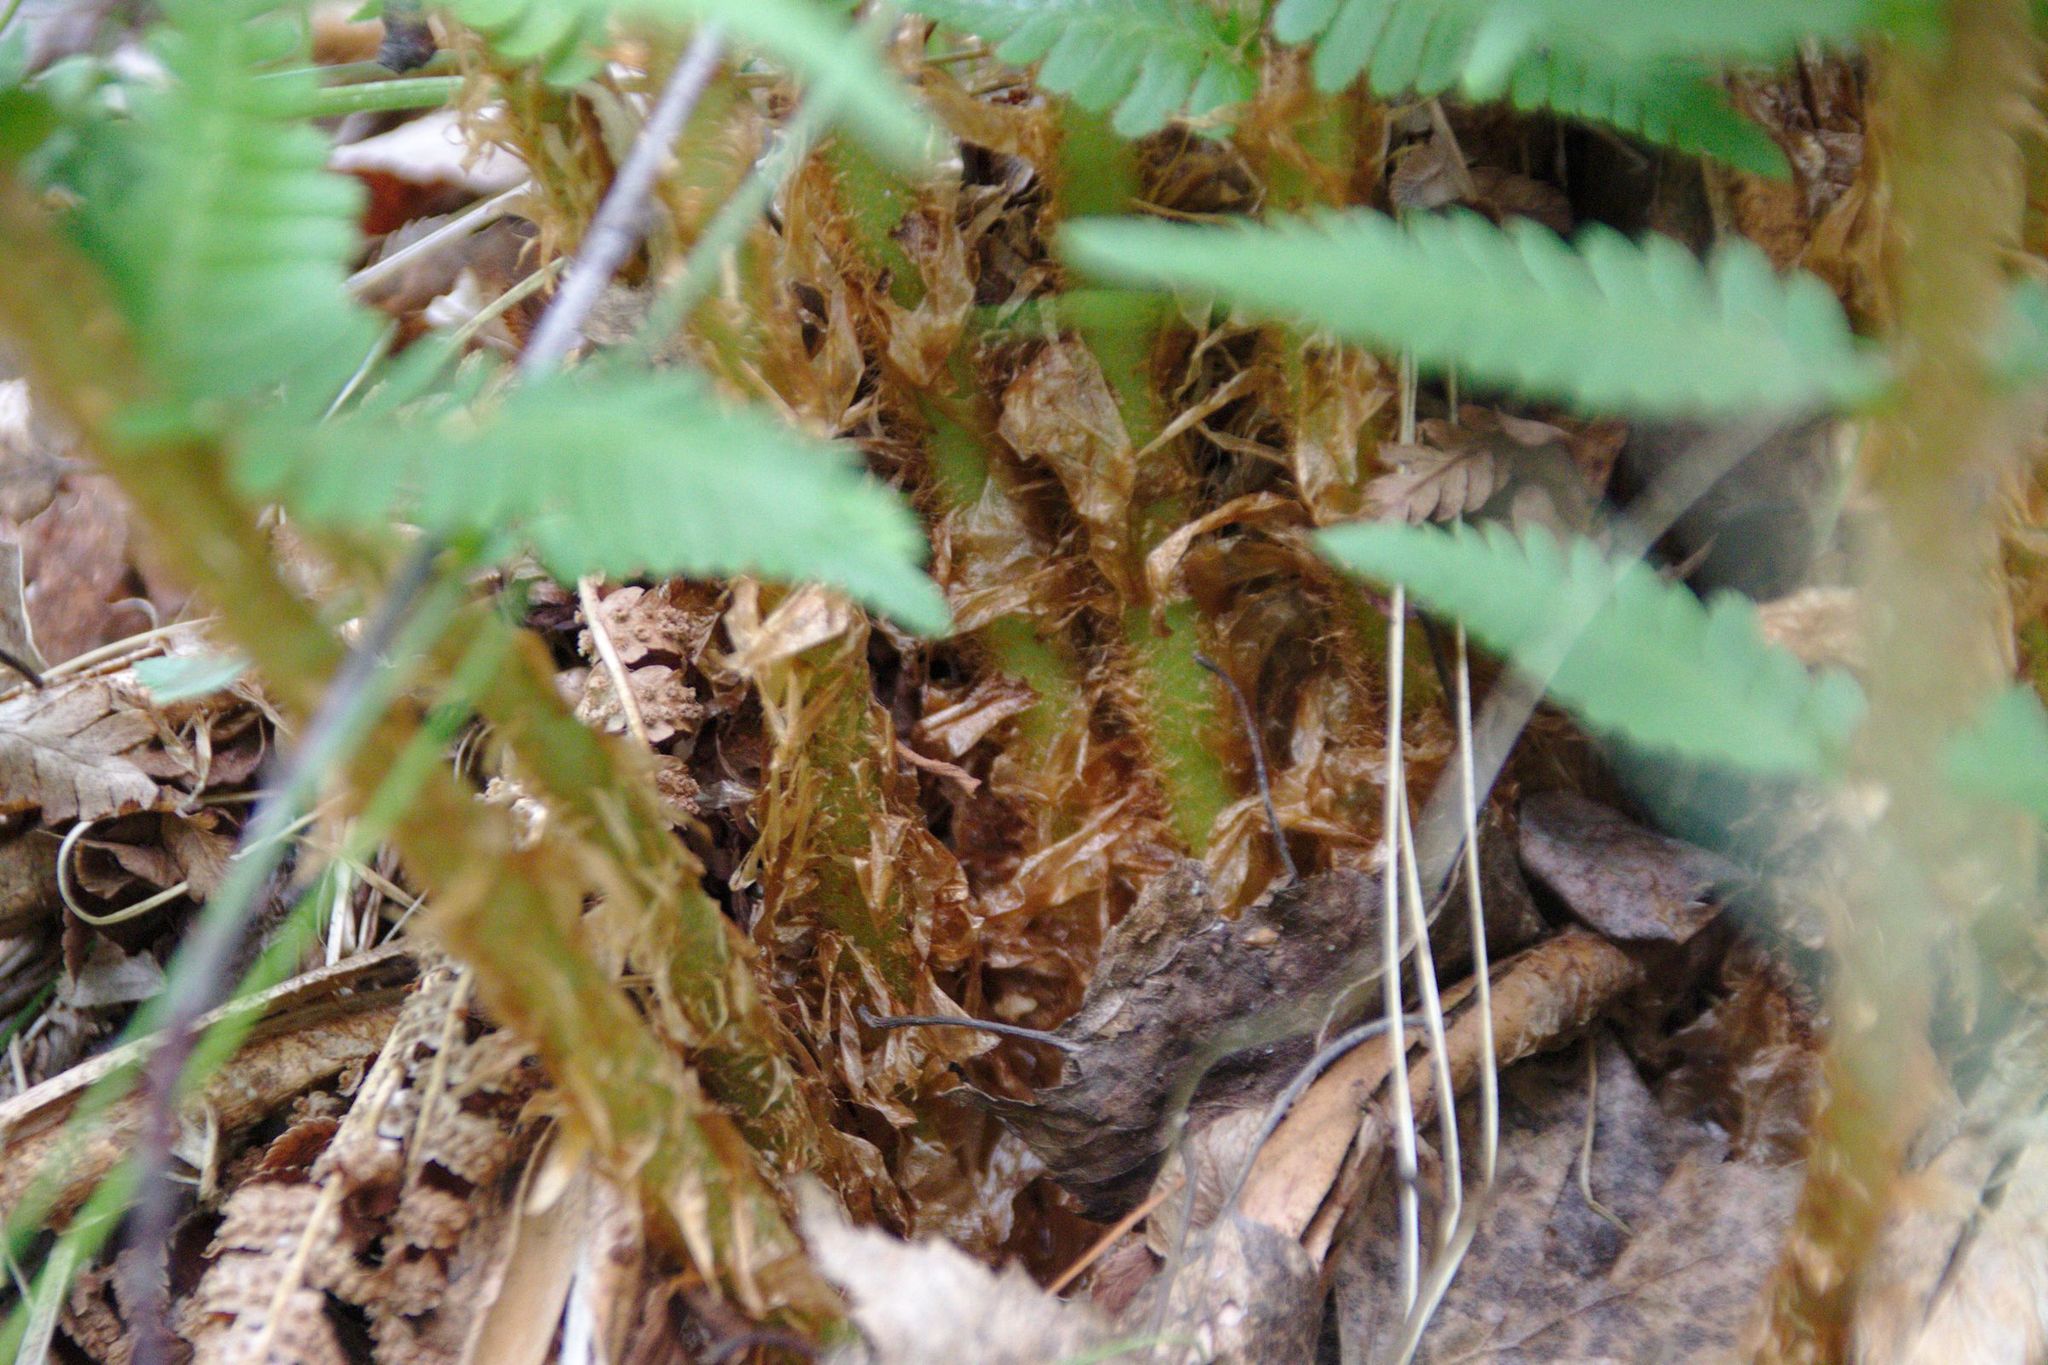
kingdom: Plantae
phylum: Tracheophyta
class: Polypodiopsida
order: Polypodiales
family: Dryopteridaceae
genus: Dryopteris
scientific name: Dryopteris filix-mas
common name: Male fern
